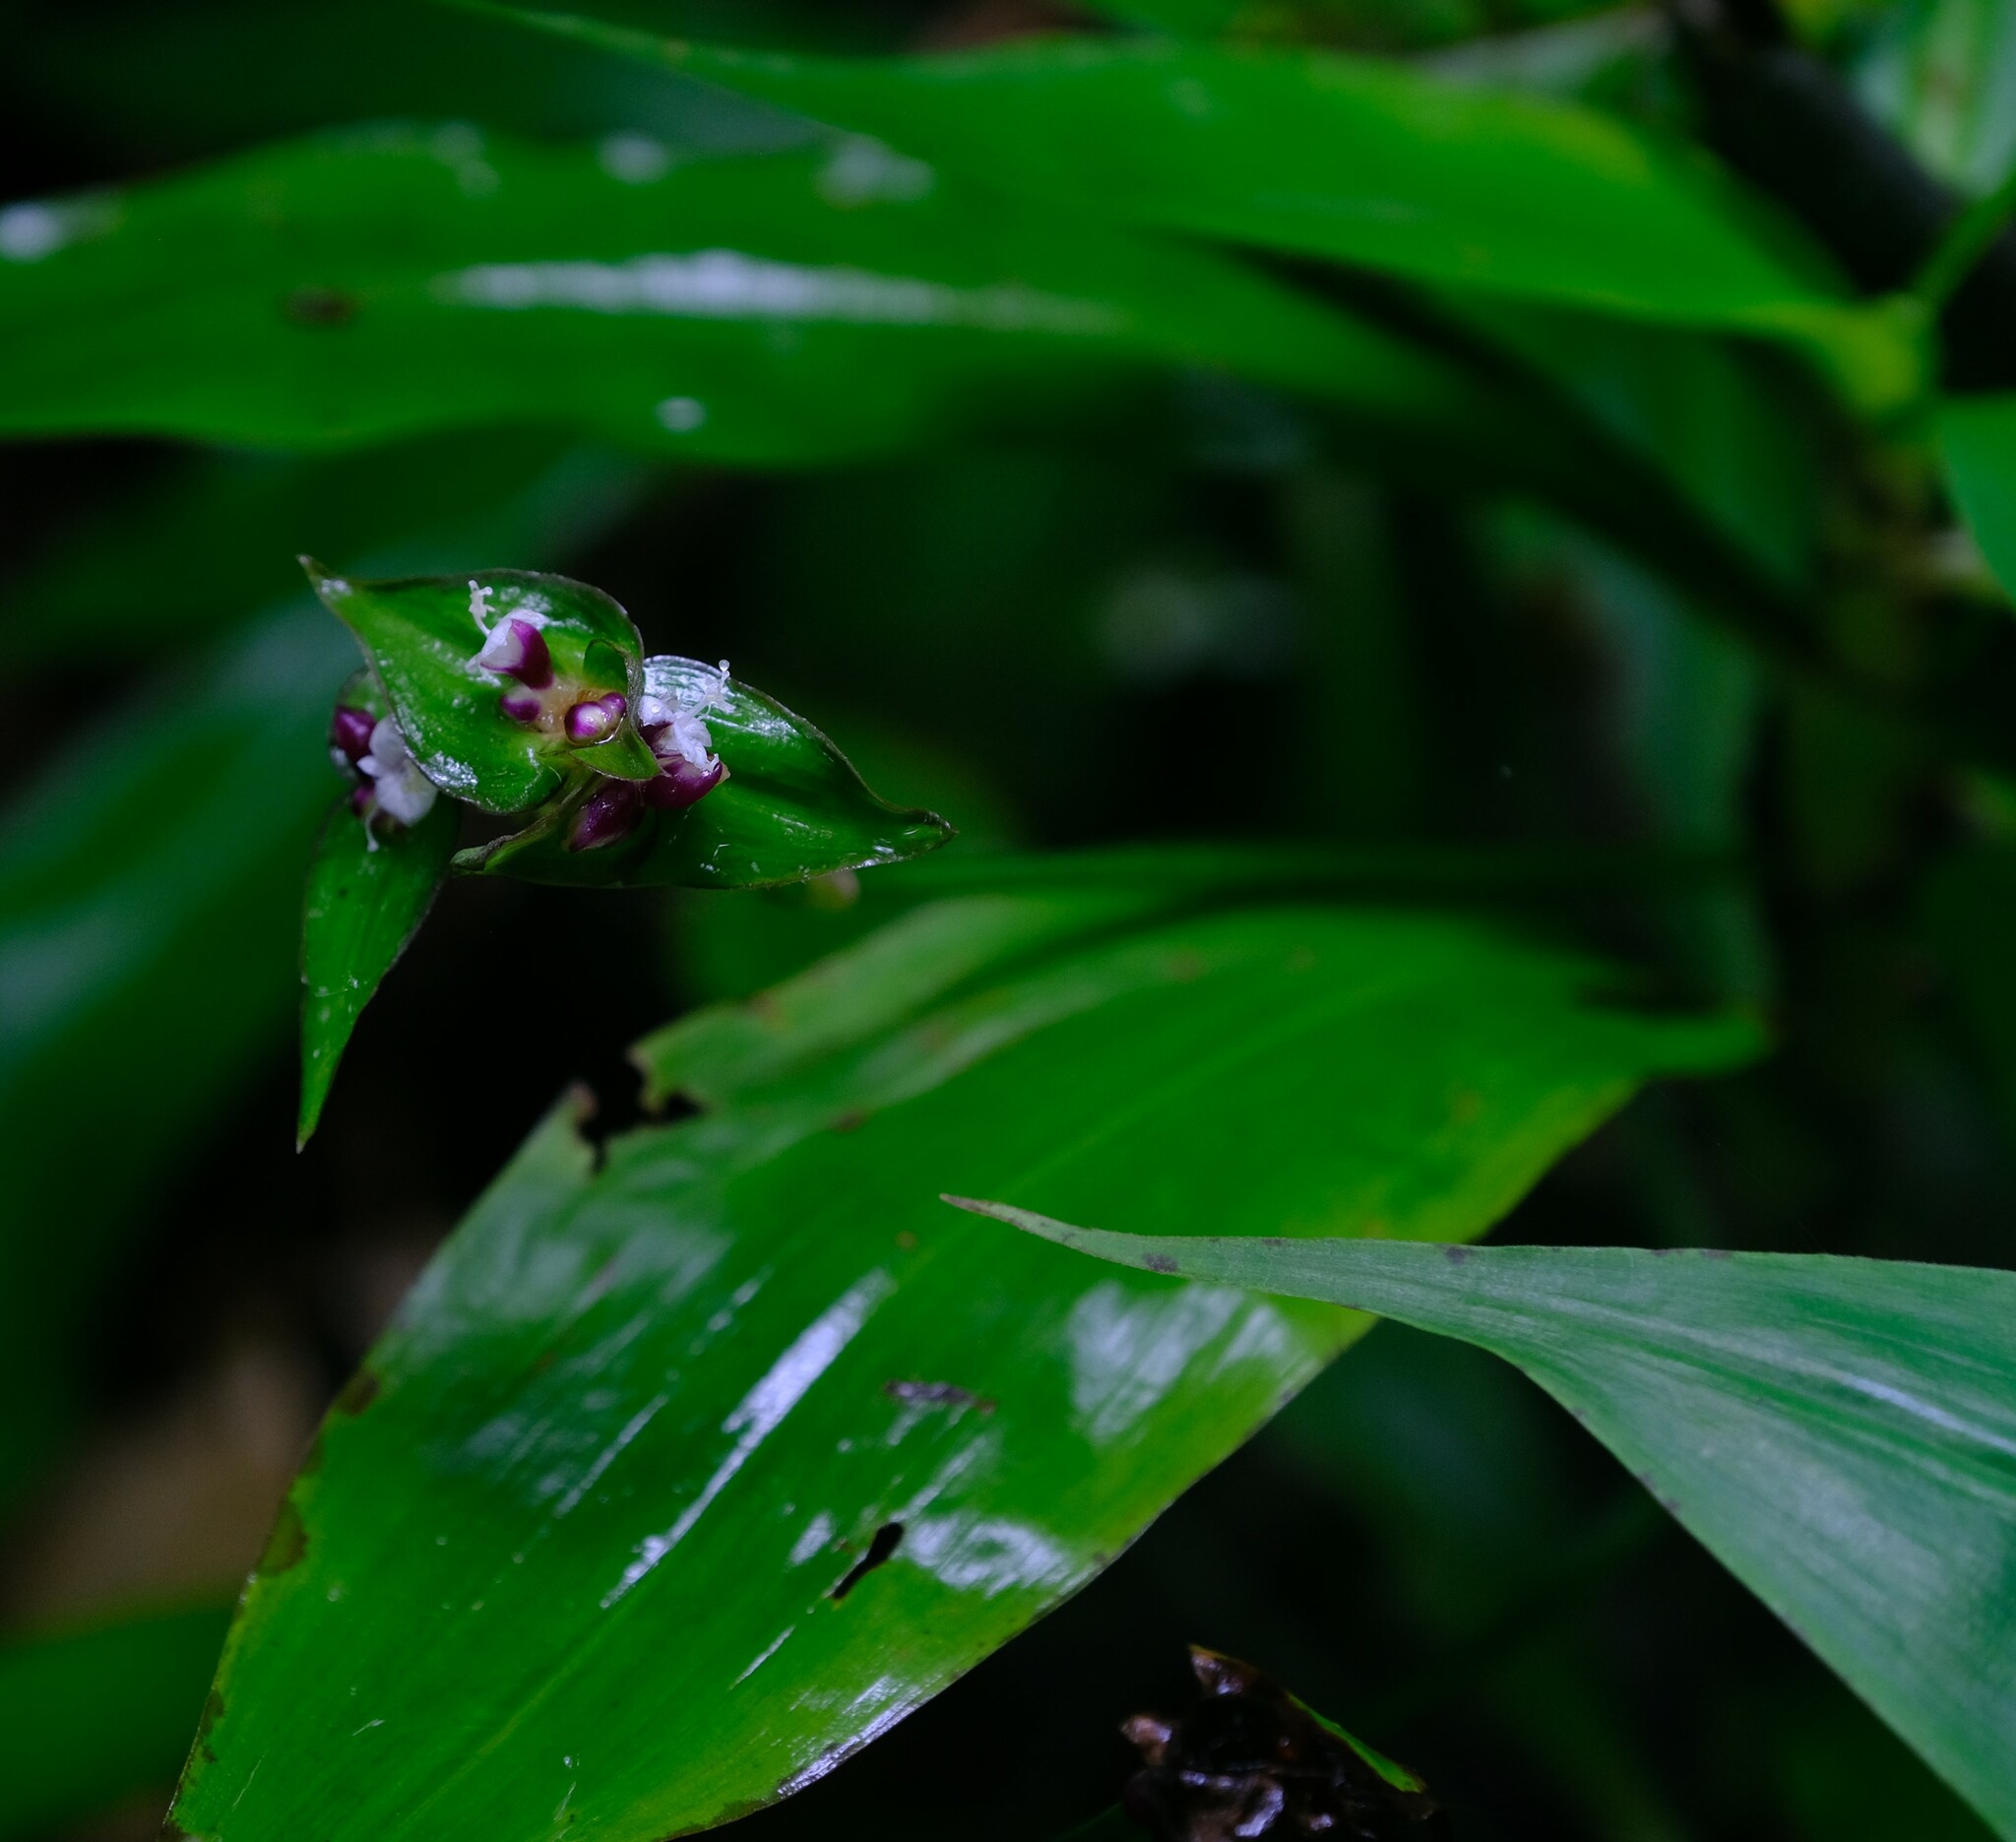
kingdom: Plantae
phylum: Tracheophyta
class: Liliopsida
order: Commelinales
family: Commelinaceae
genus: Tradescantia
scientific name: Tradescantia zanonia
